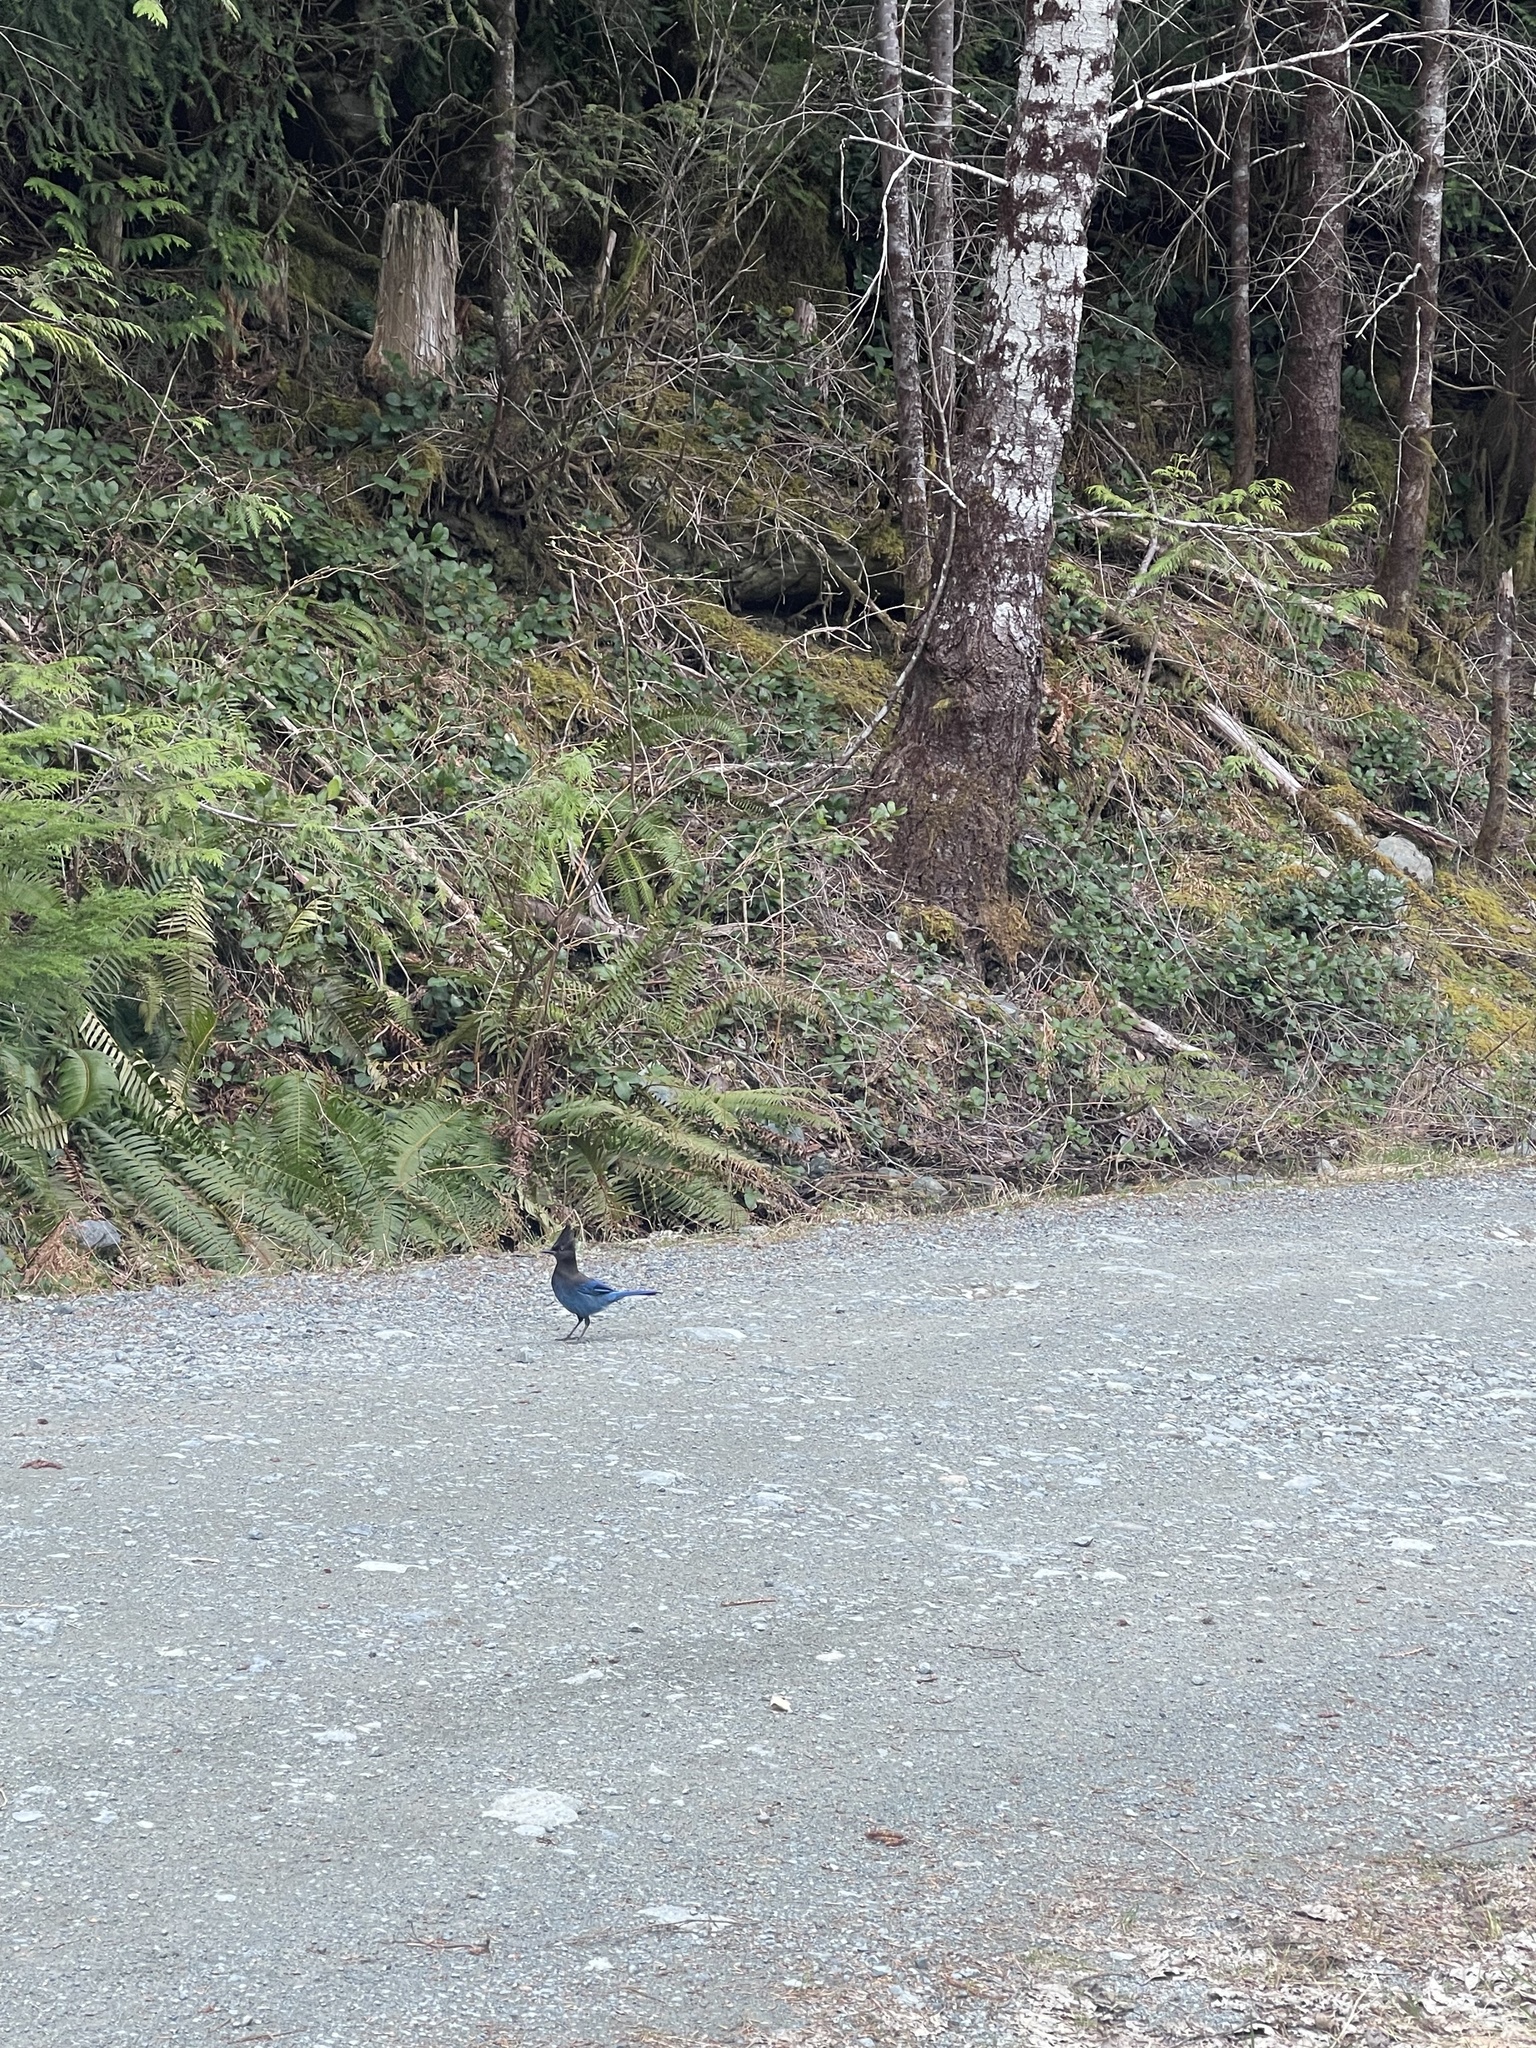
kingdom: Animalia
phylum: Chordata
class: Aves
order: Passeriformes
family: Corvidae
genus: Cyanocitta
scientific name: Cyanocitta stelleri
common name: Steller's jay
